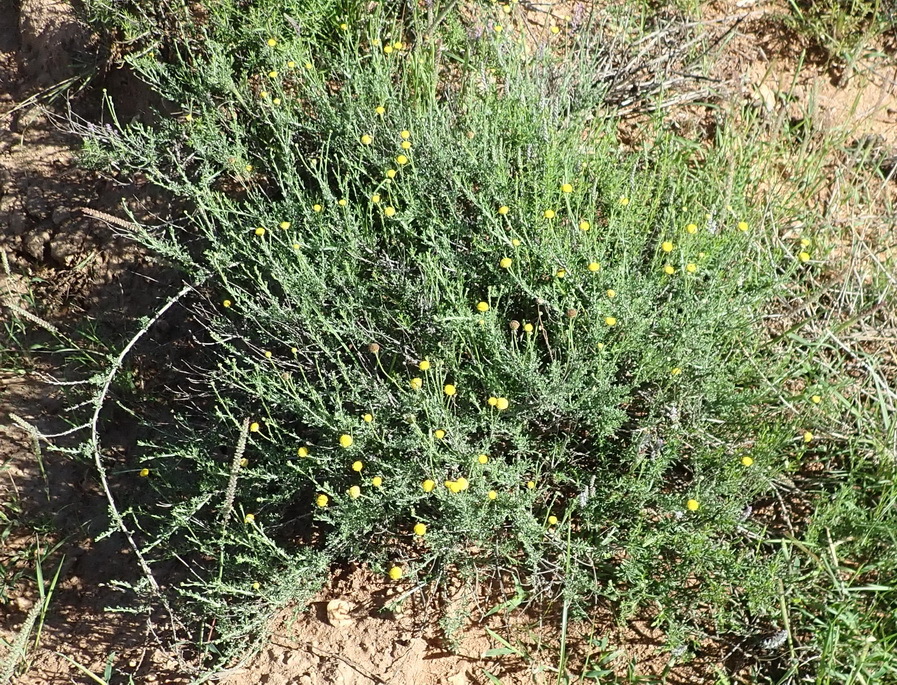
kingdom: Plantae
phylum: Tracheophyta
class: Magnoliopsida
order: Asterales
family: Asteraceae
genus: Pentzia
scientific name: Pentzia incana
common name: African sheepbush
